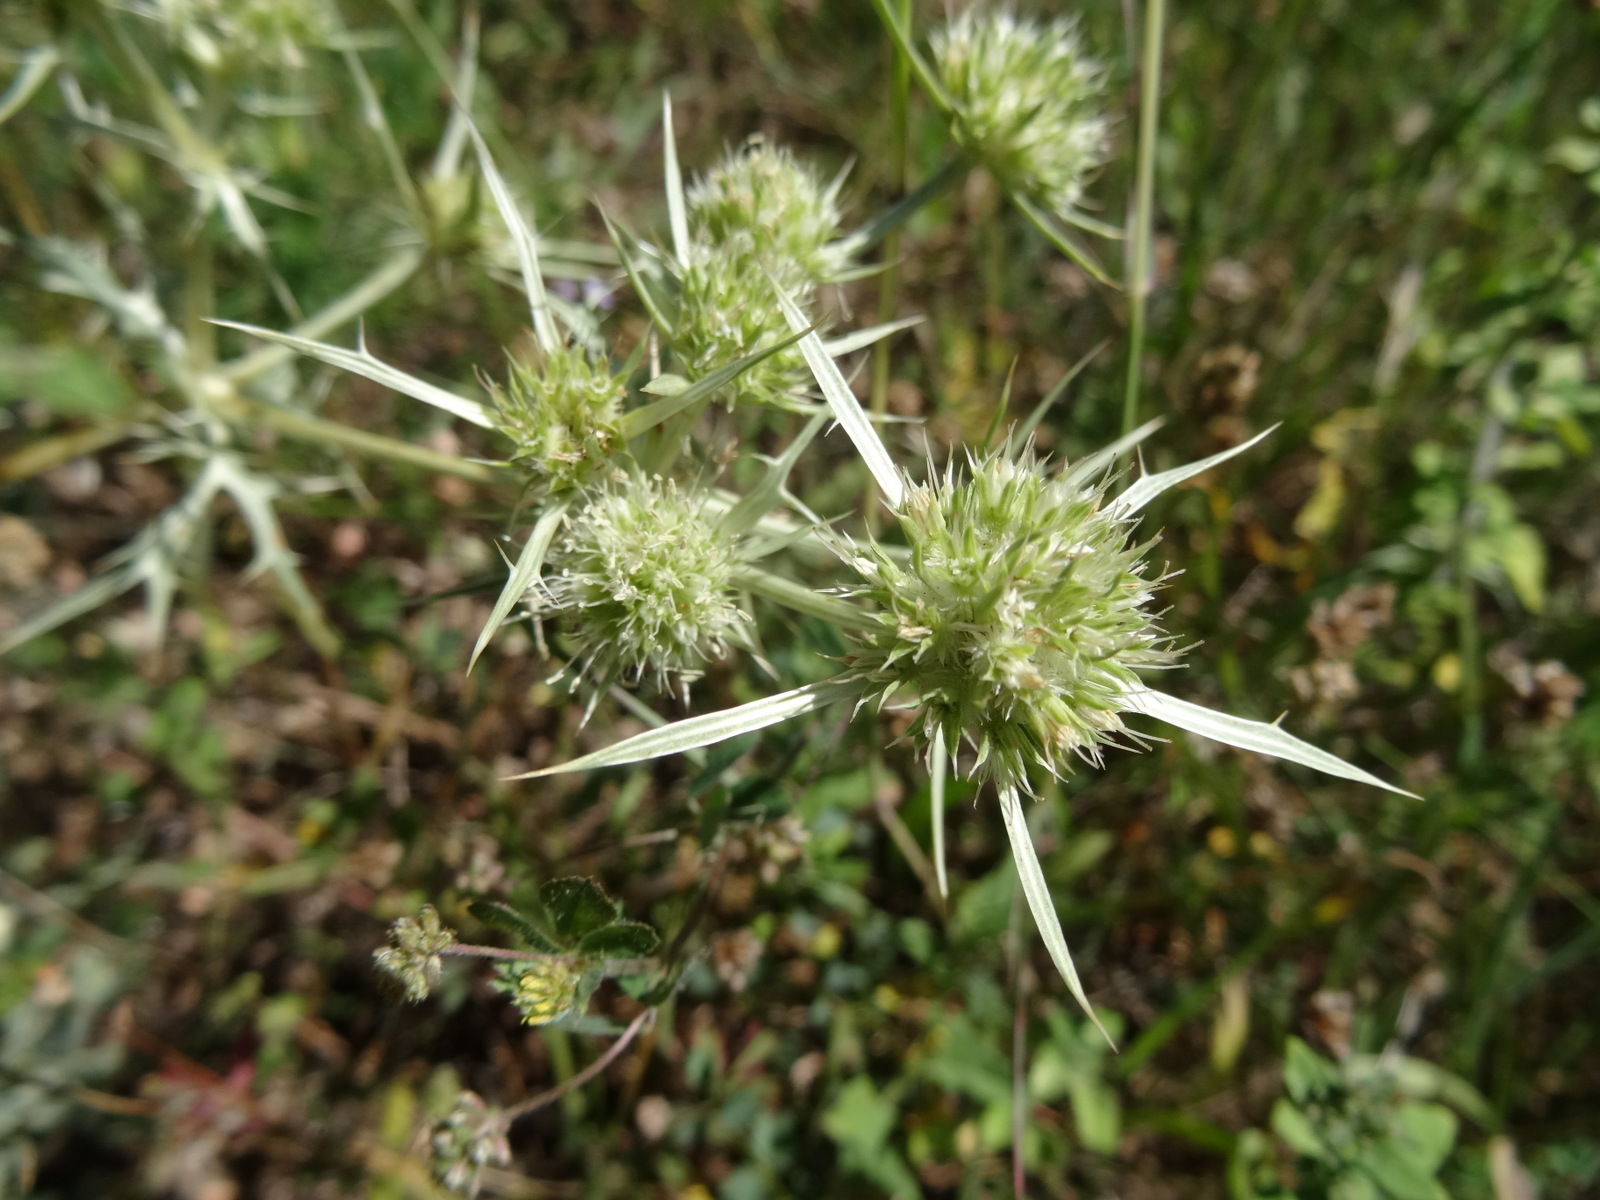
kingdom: Plantae
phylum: Tracheophyta
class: Magnoliopsida
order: Apiales
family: Apiaceae
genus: Eryngium
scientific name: Eryngium campestre
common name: Field eryngo
